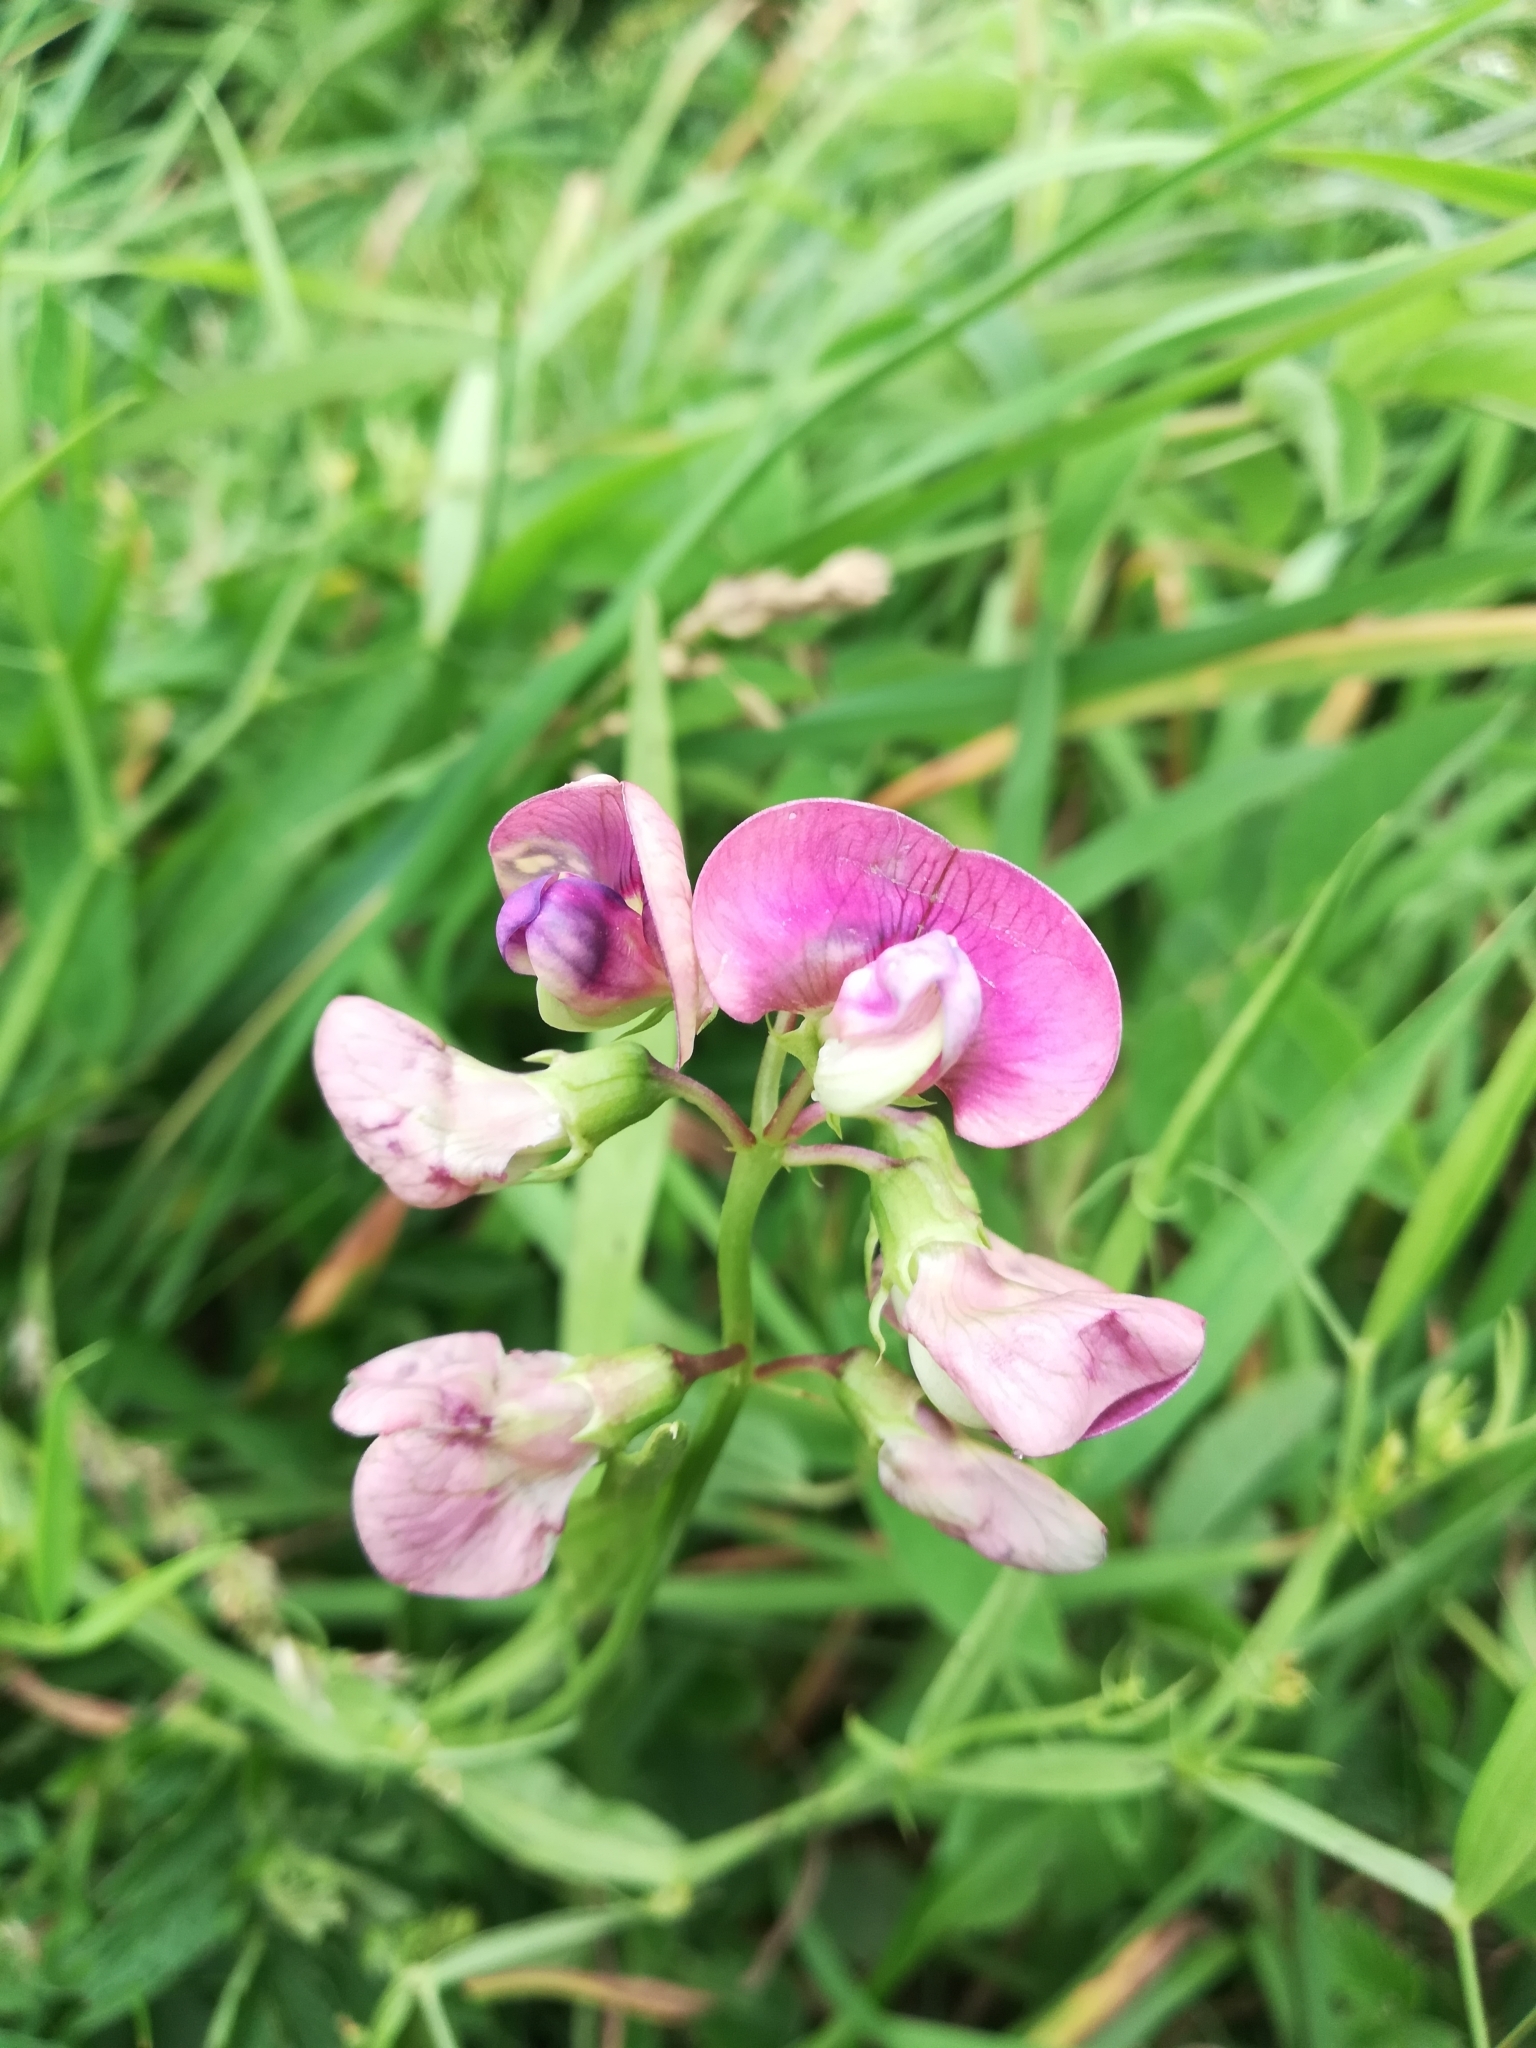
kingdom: Plantae
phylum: Tracheophyta
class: Magnoliopsida
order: Fabales
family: Fabaceae
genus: Lathyrus
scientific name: Lathyrus sylvestris
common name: Flat pea
